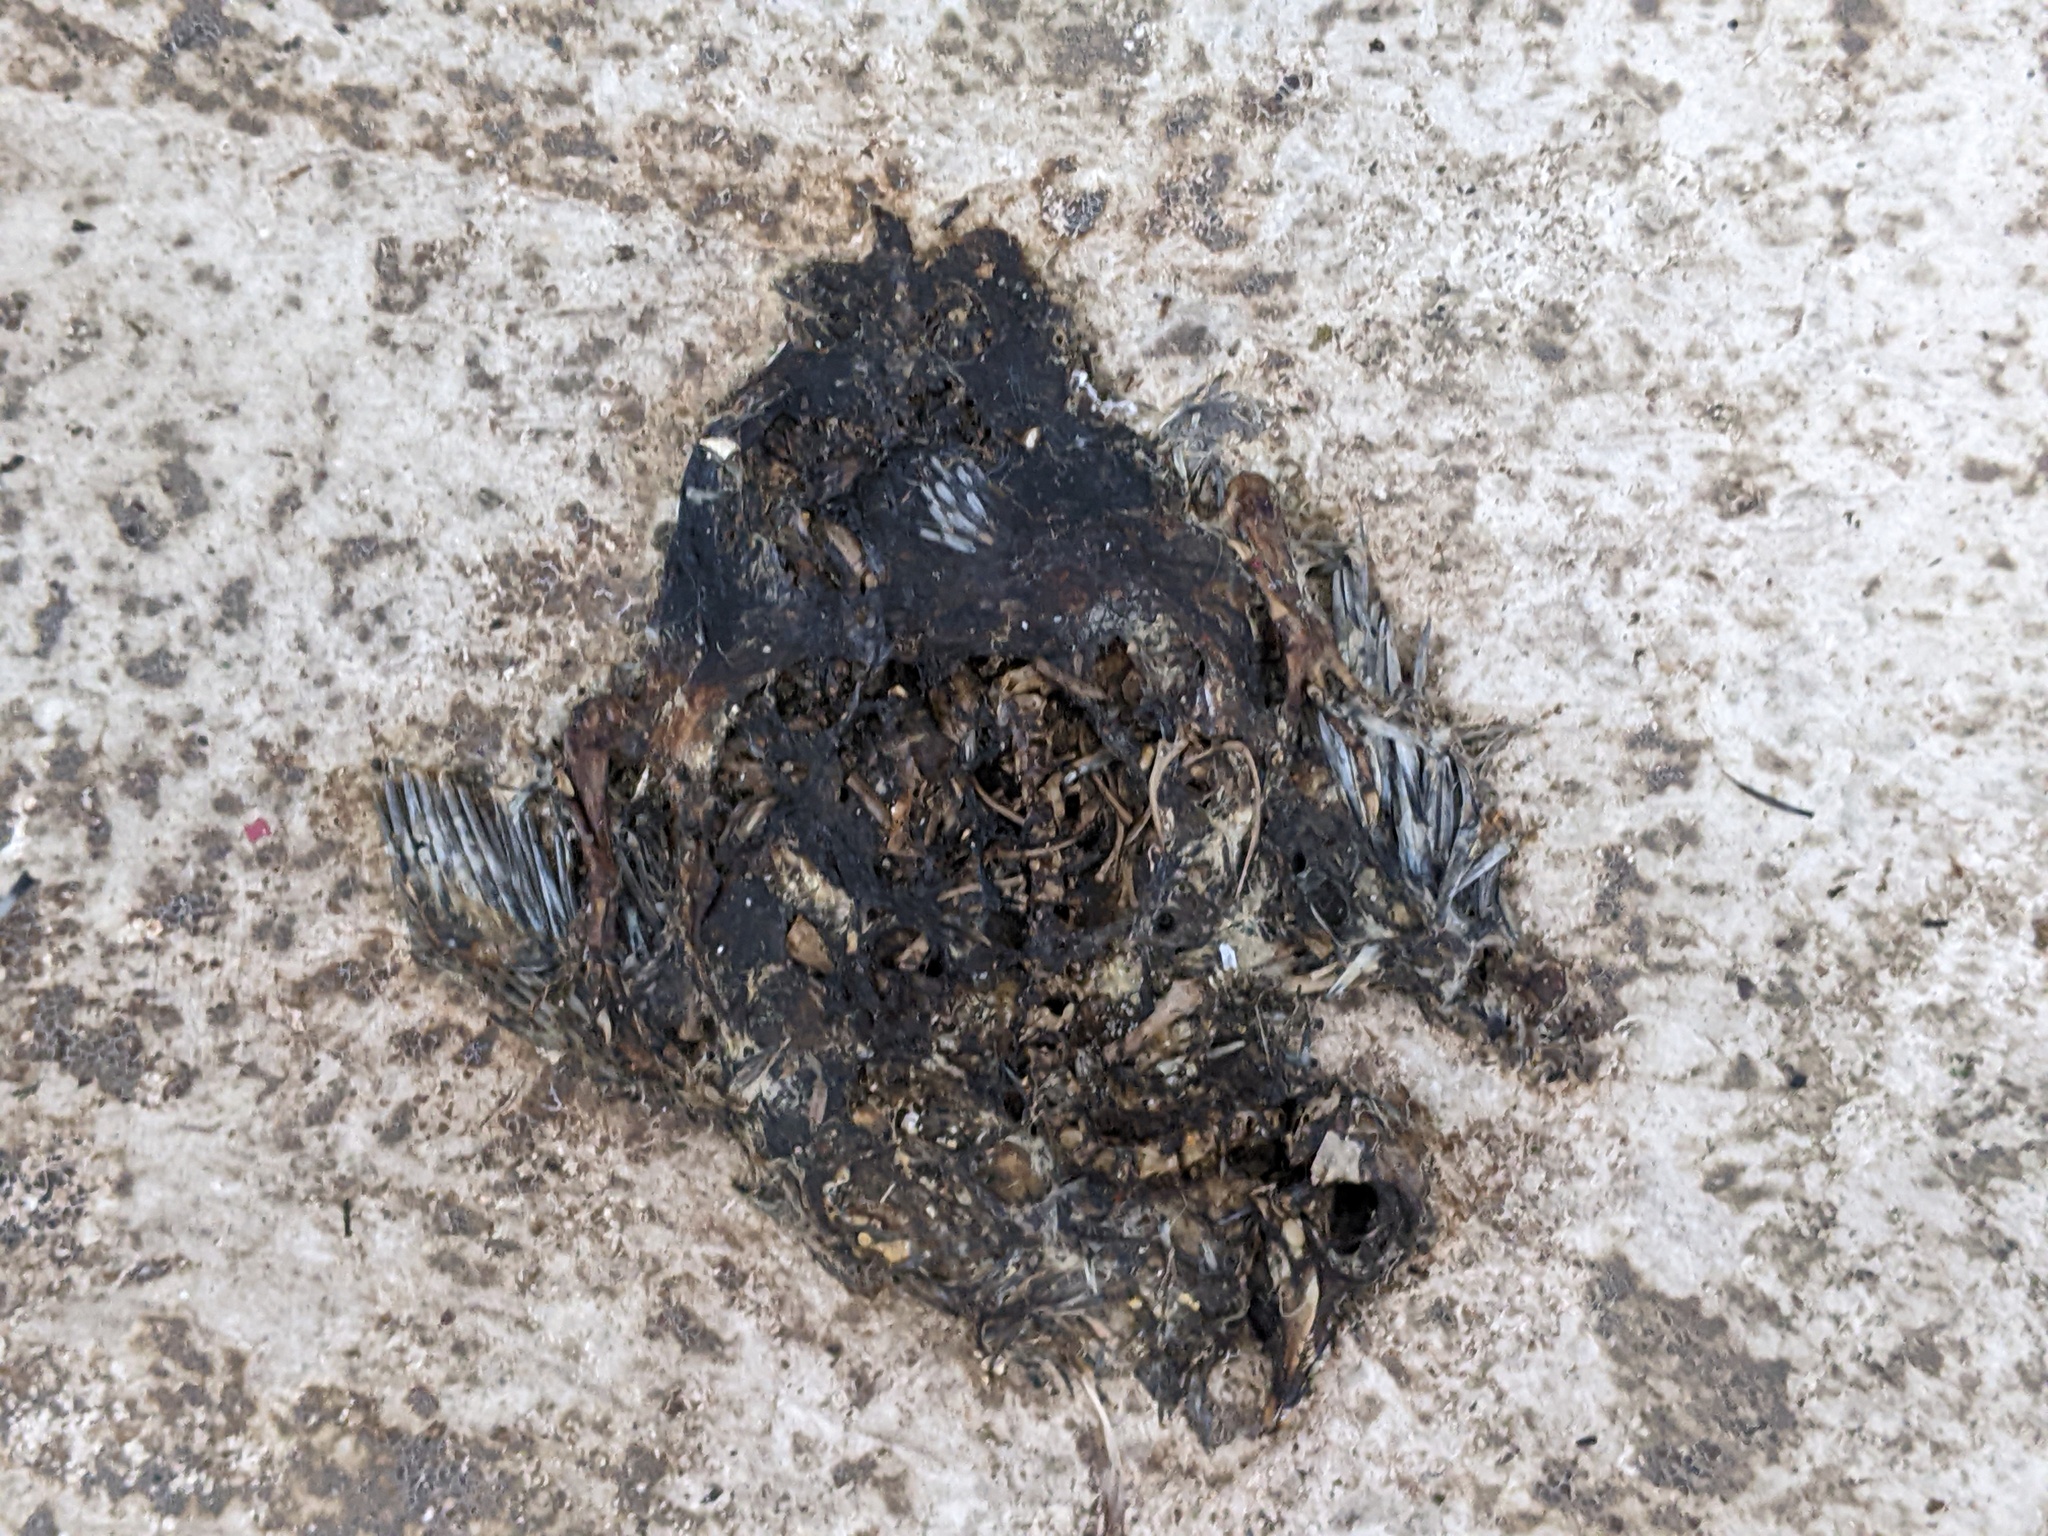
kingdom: Animalia
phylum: Chordata
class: Aves
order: Columbiformes
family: Columbidae
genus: Columba
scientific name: Columba livia
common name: Rock pigeon
